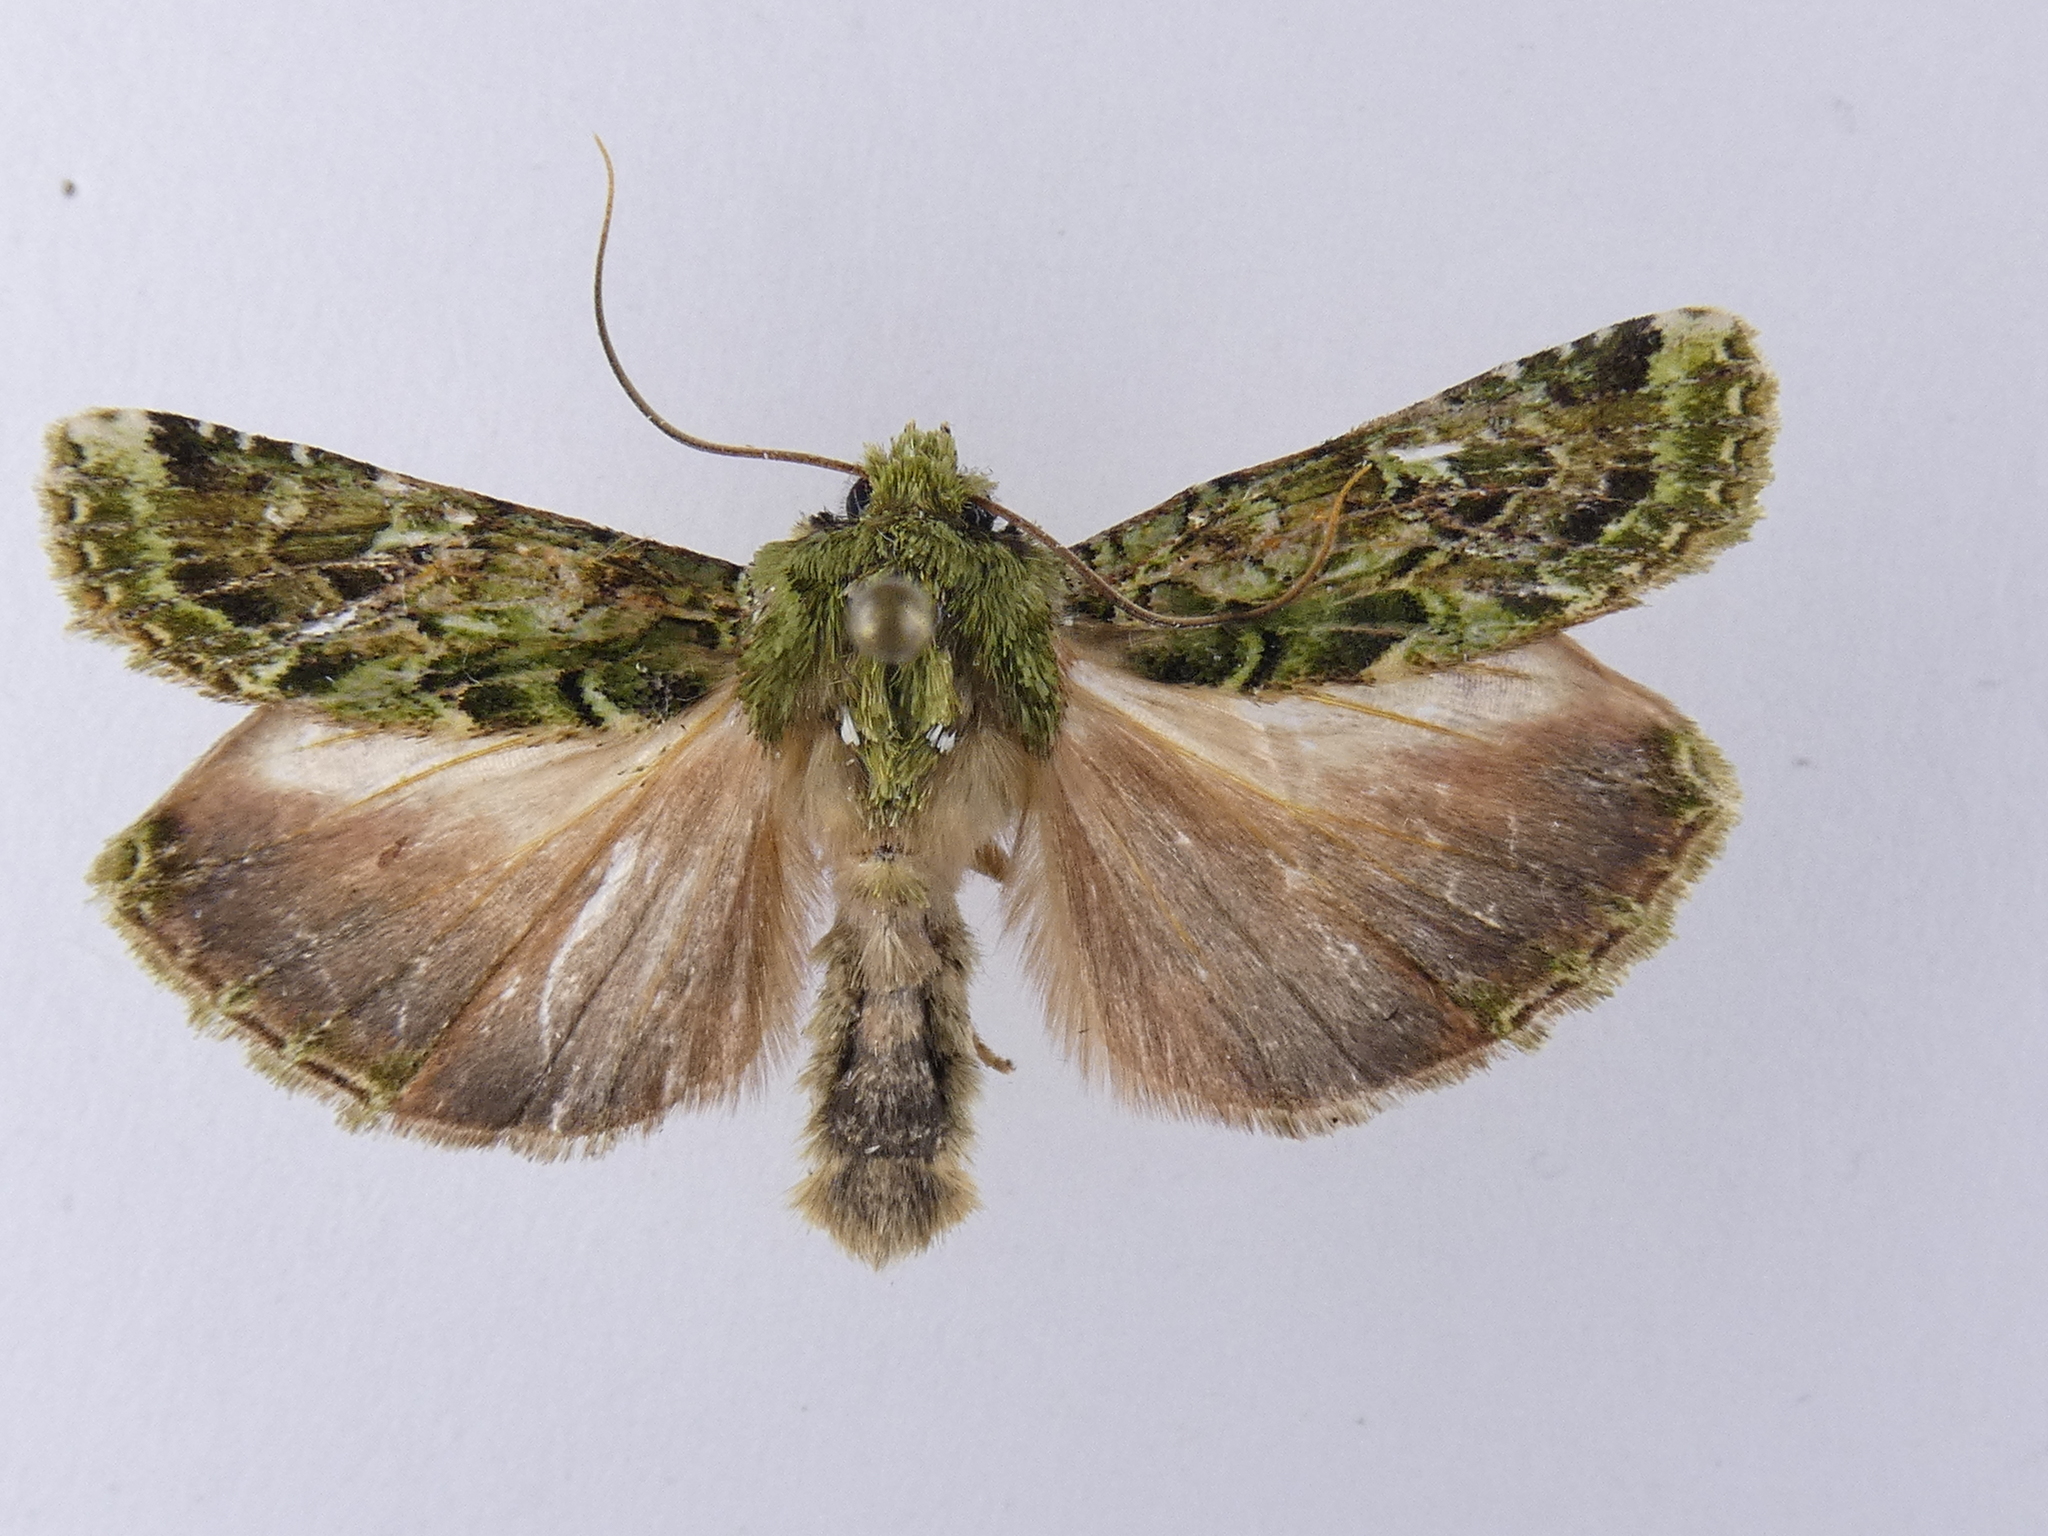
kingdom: Animalia
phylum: Arthropoda
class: Insecta
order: Lepidoptera
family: Noctuidae
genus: Feredayia
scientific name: Feredayia grammosa
